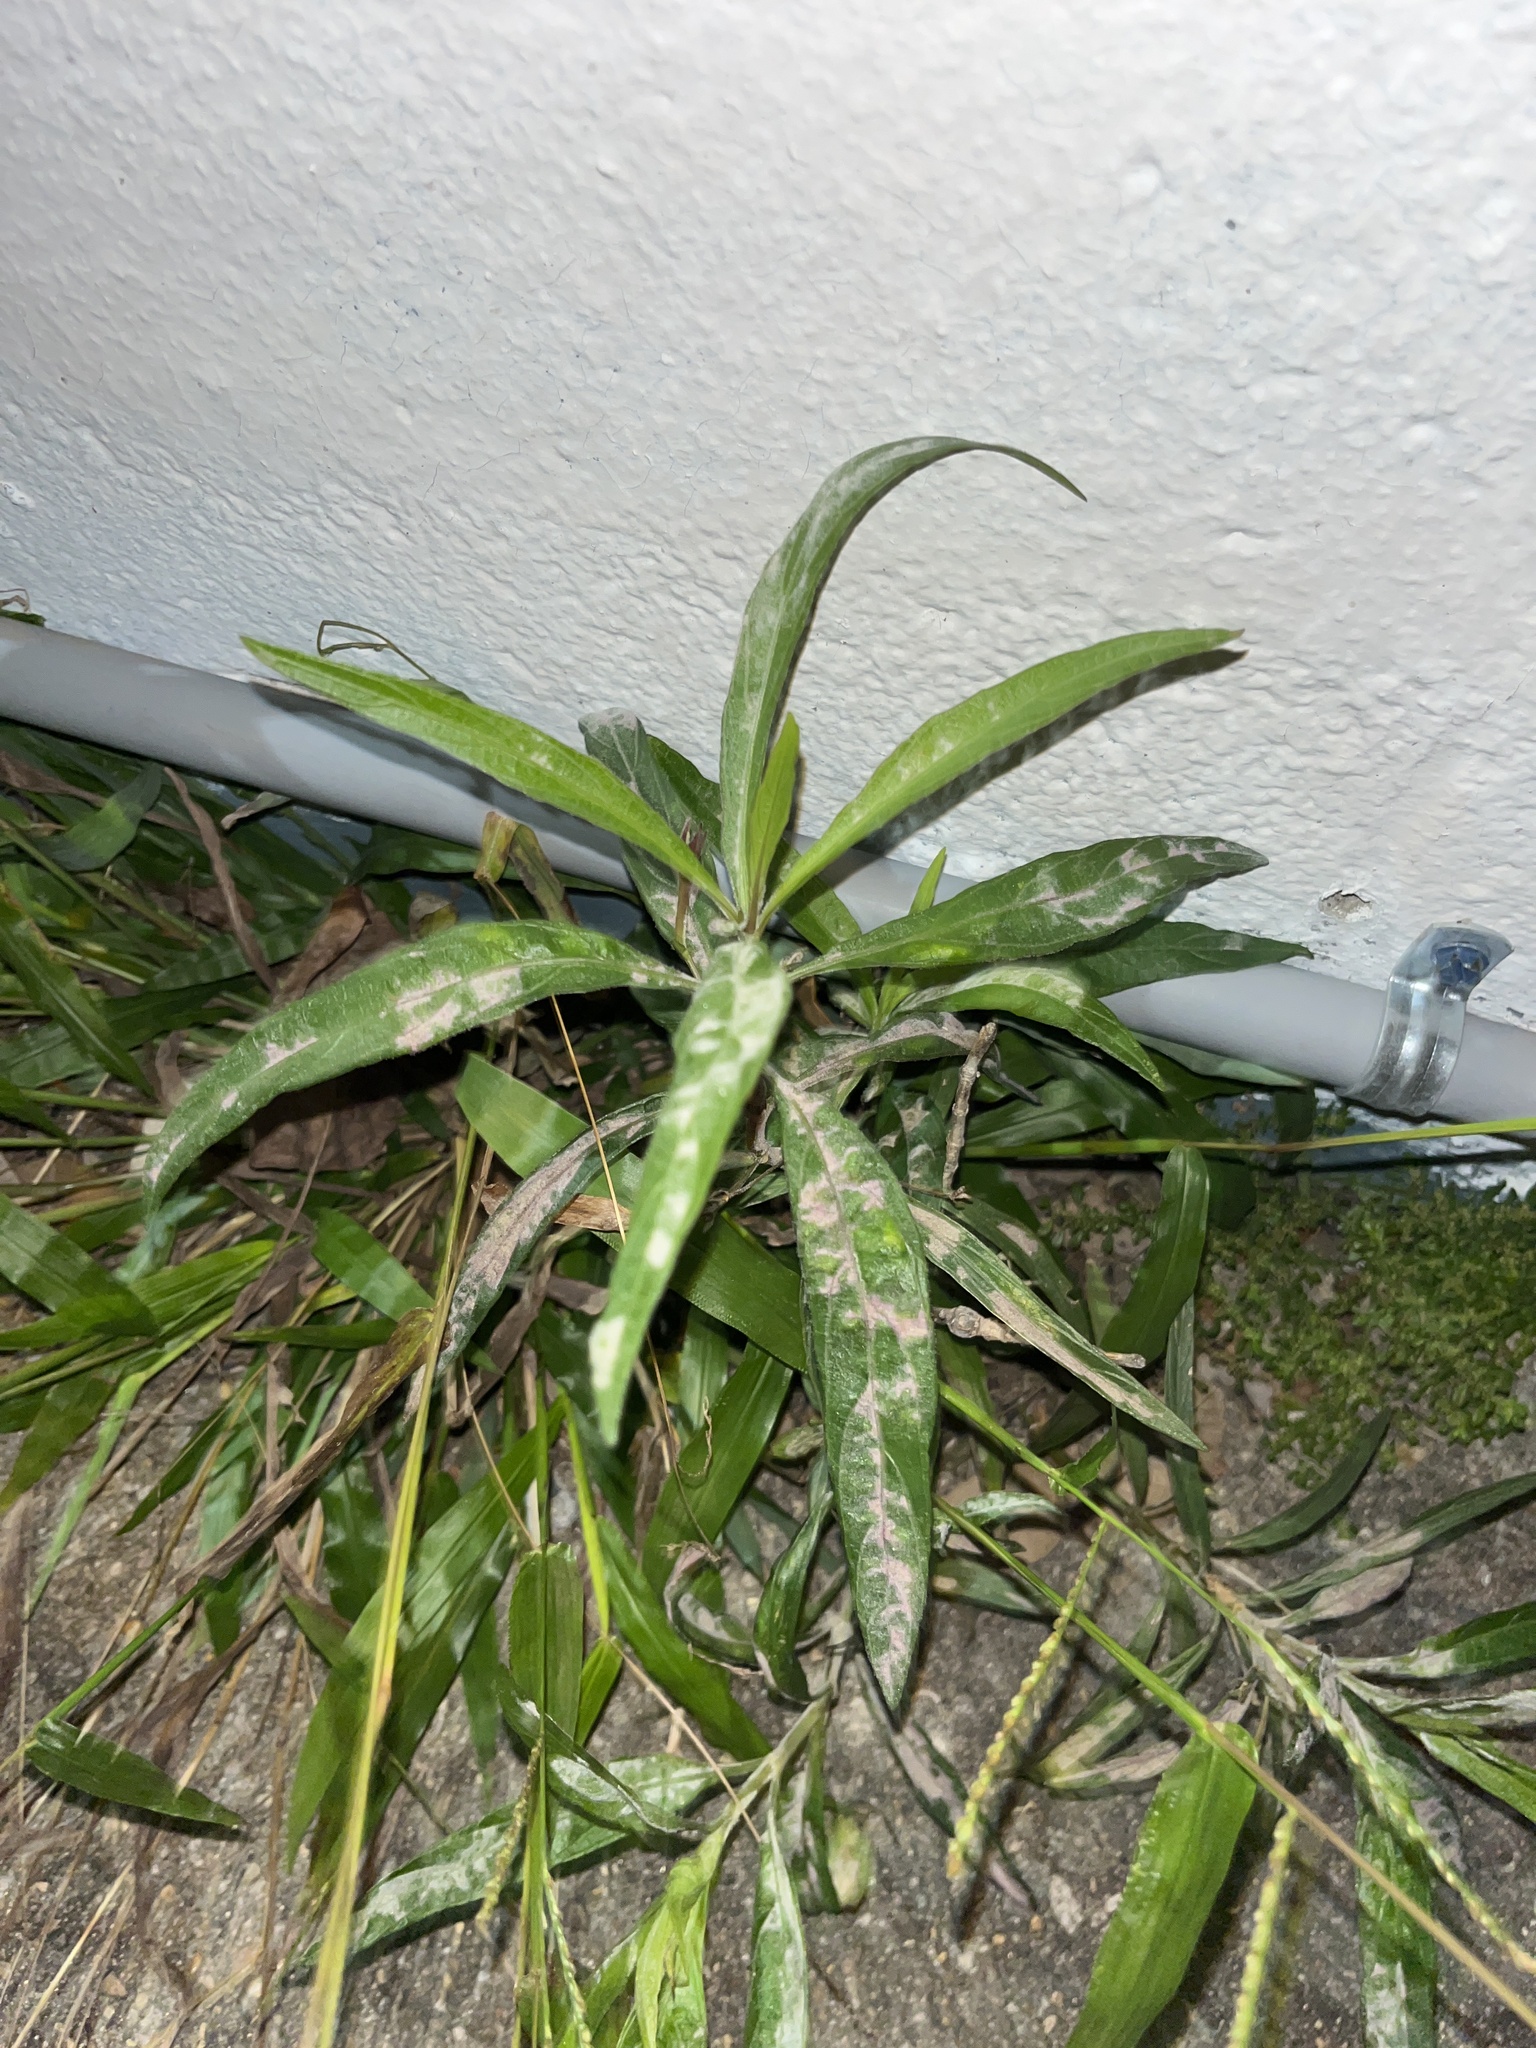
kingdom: Plantae
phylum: Tracheophyta
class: Magnoliopsida
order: Lamiales
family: Acanthaceae
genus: Ruellia
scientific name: Ruellia simplex
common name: Softseed wild petunia
